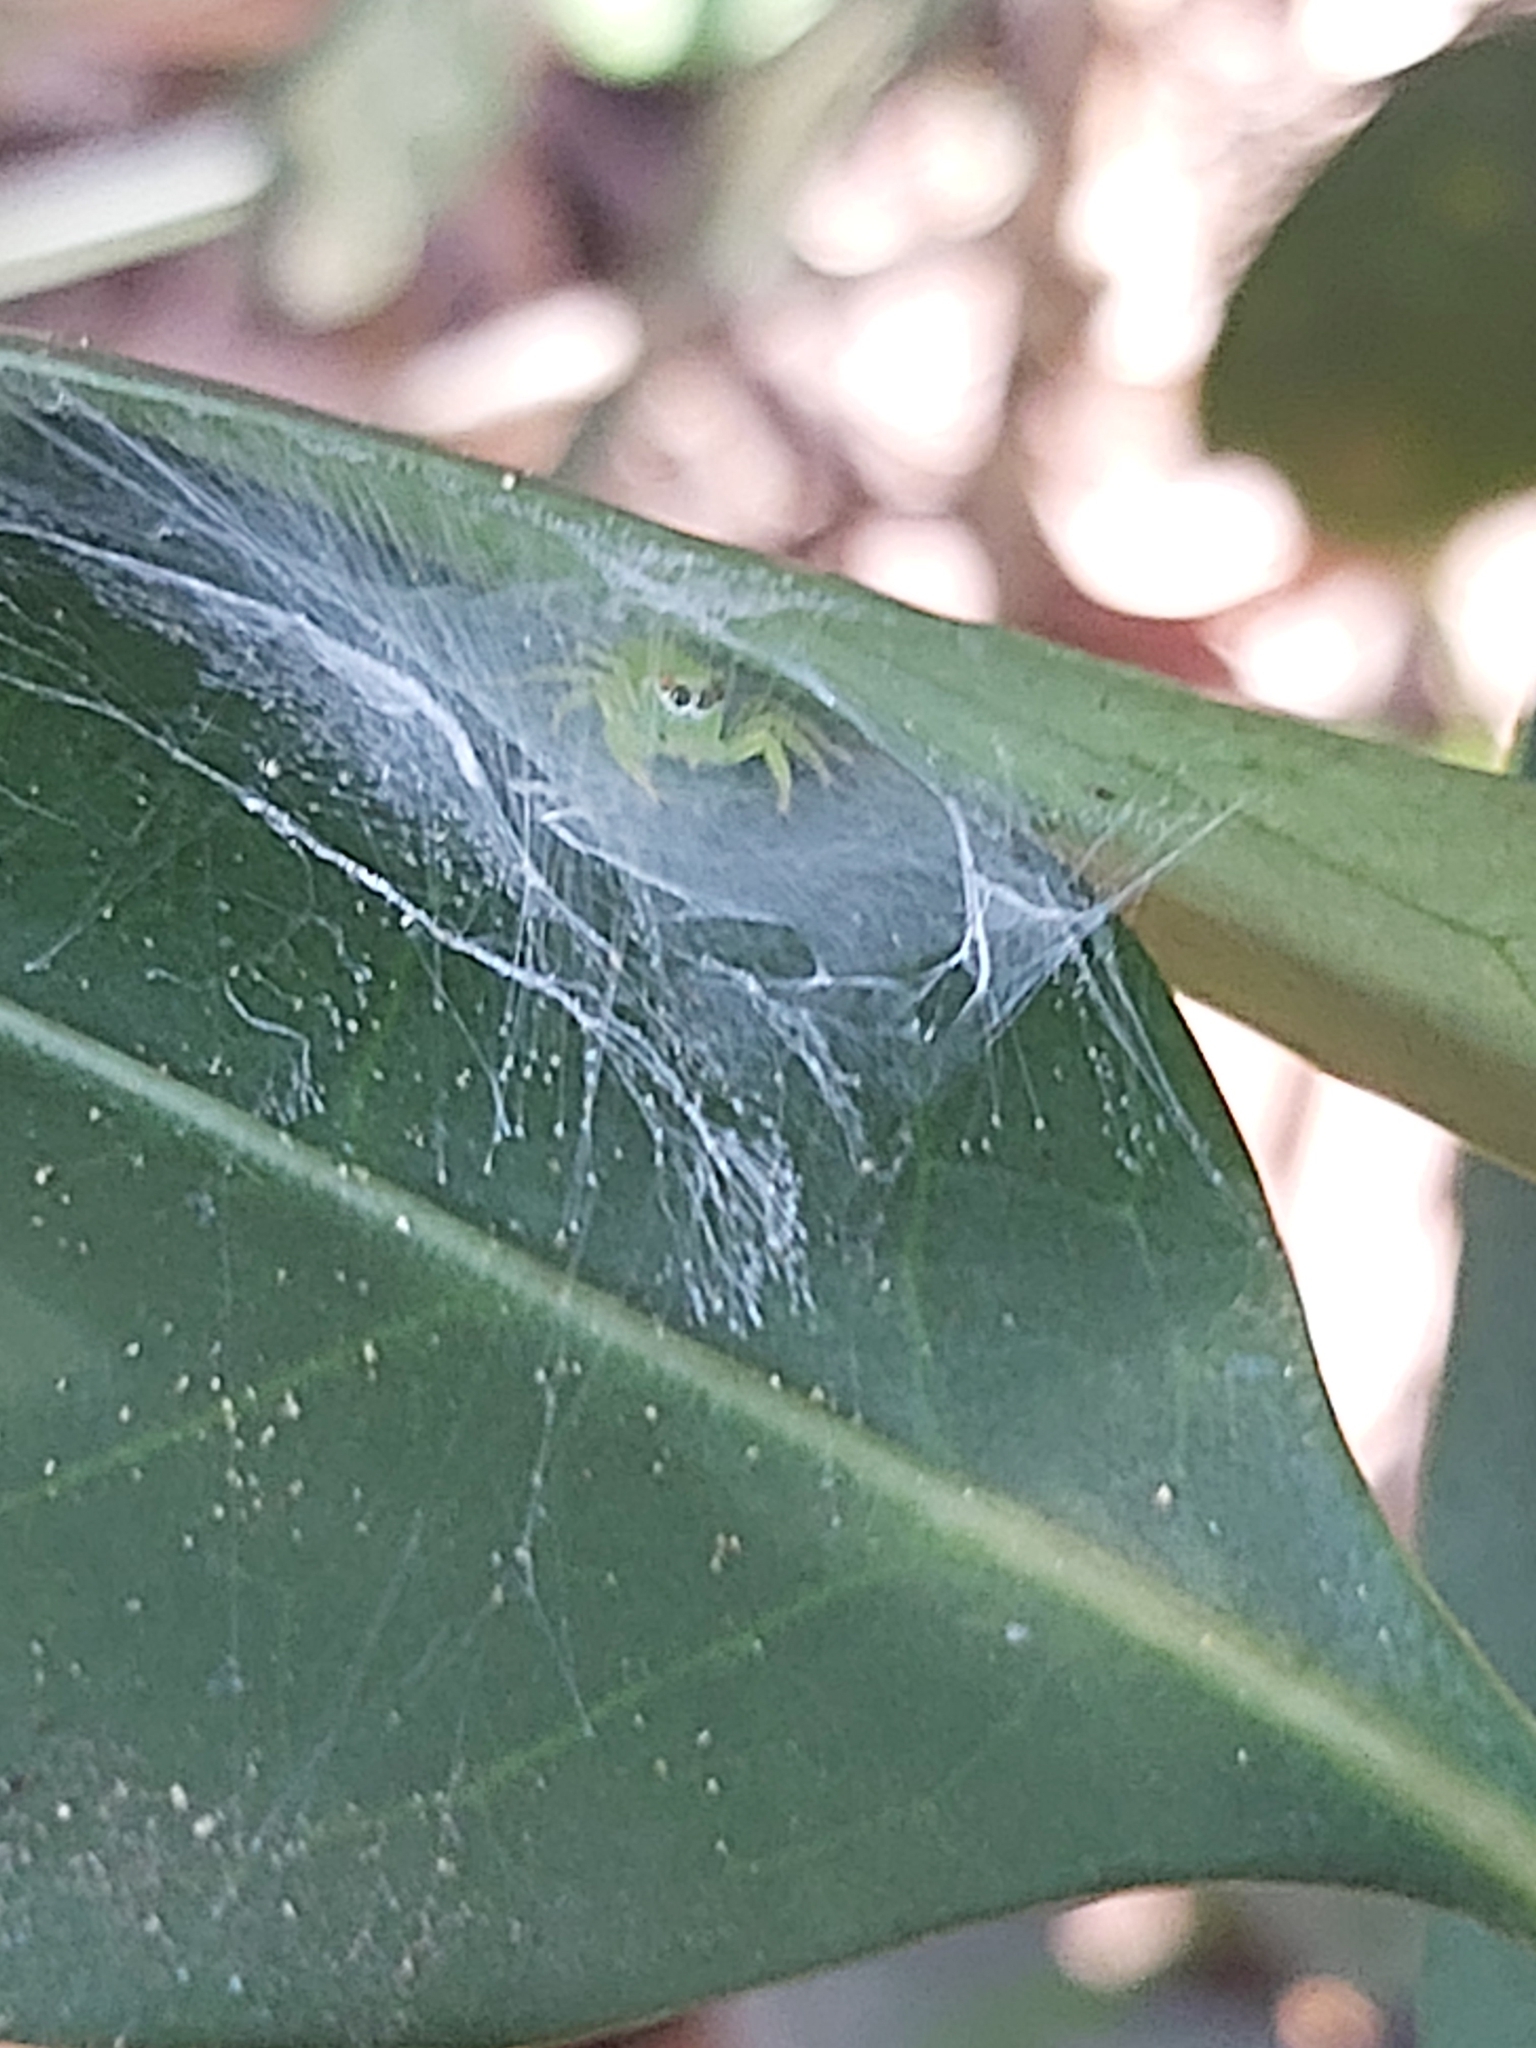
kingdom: Animalia
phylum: Arthropoda
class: Arachnida
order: Araneae
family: Salticidae
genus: Mopsus
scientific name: Mopsus mormon
